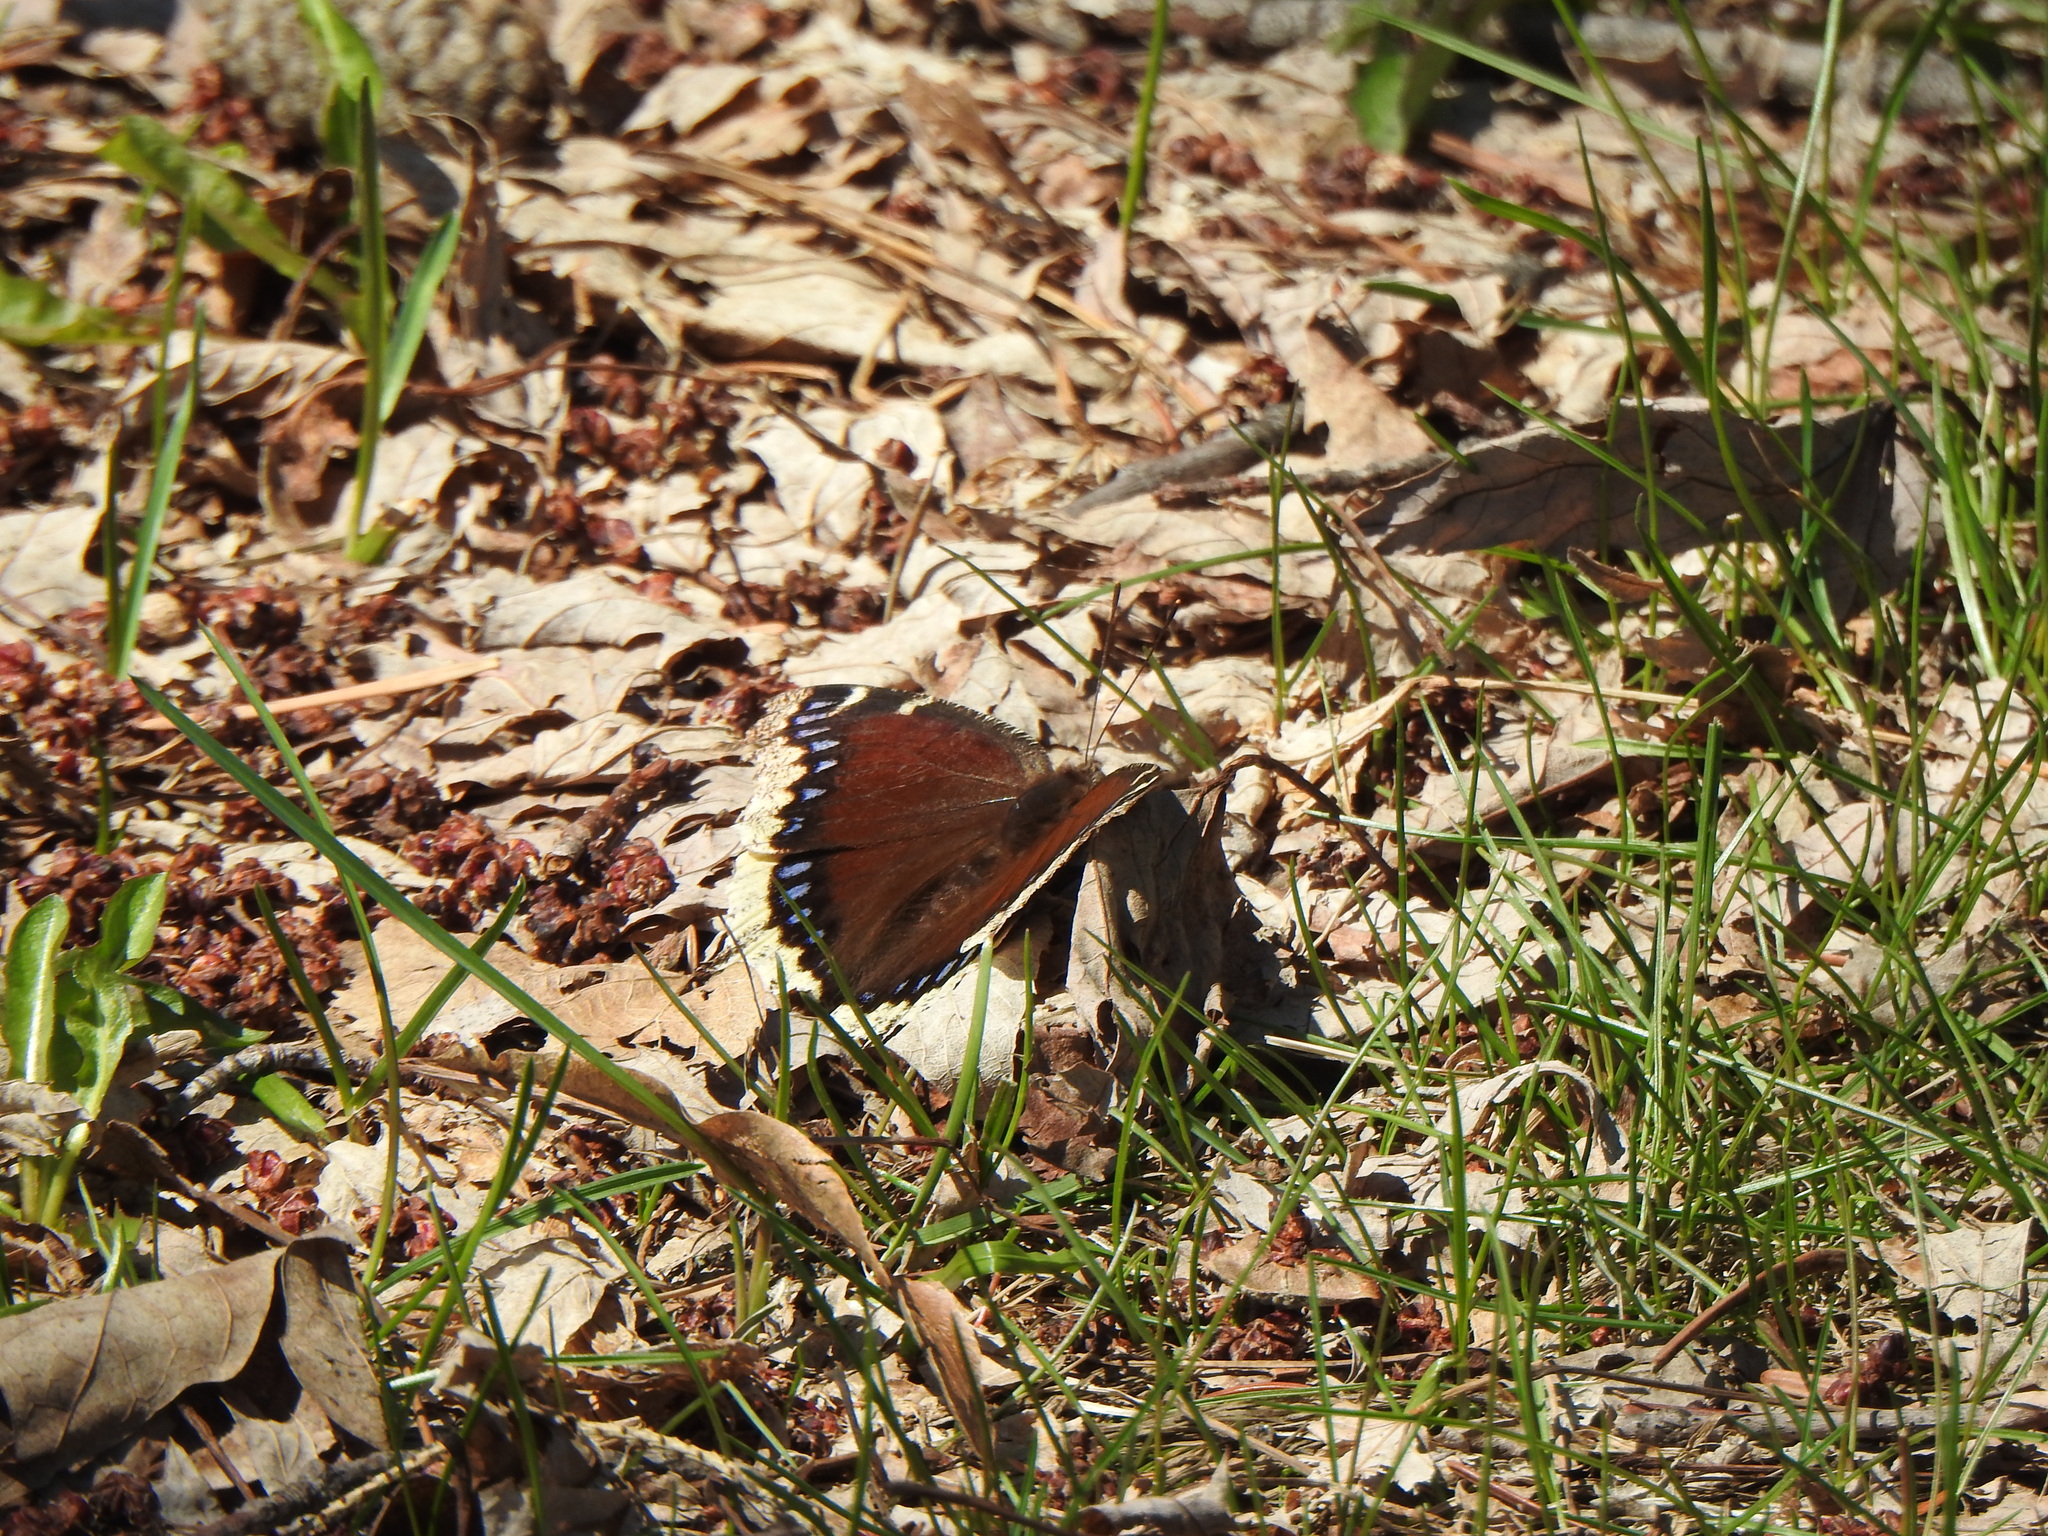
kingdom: Animalia
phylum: Arthropoda
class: Insecta
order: Lepidoptera
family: Nymphalidae
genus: Nymphalis
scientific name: Nymphalis antiopa
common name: Camberwell beauty
